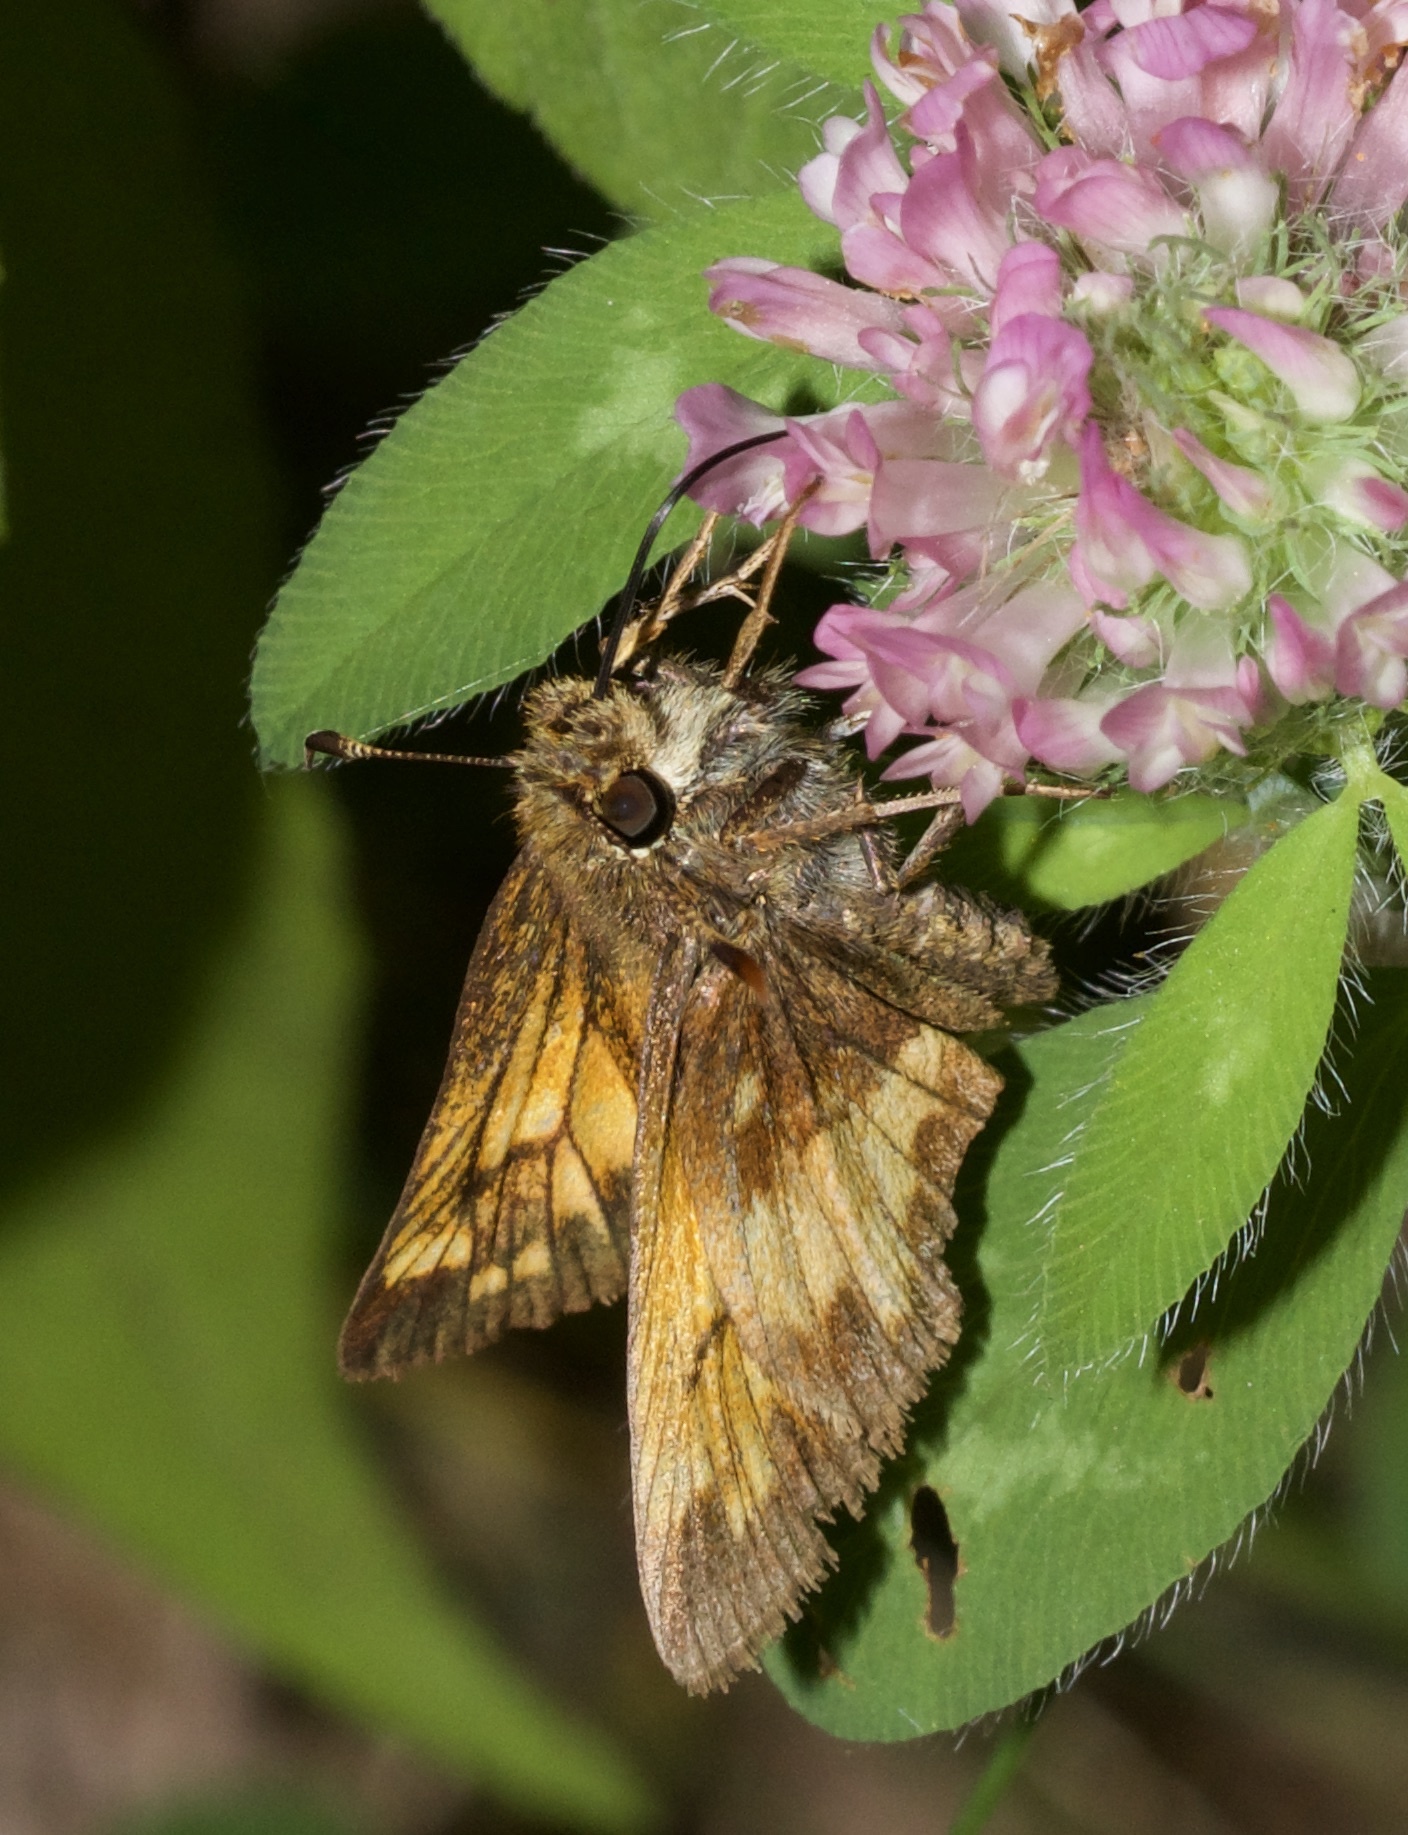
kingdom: Animalia
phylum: Arthropoda
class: Insecta
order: Lepidoptera
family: Hesperiidae
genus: Lon
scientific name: Lon hobomok
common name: Hobomok skipper
